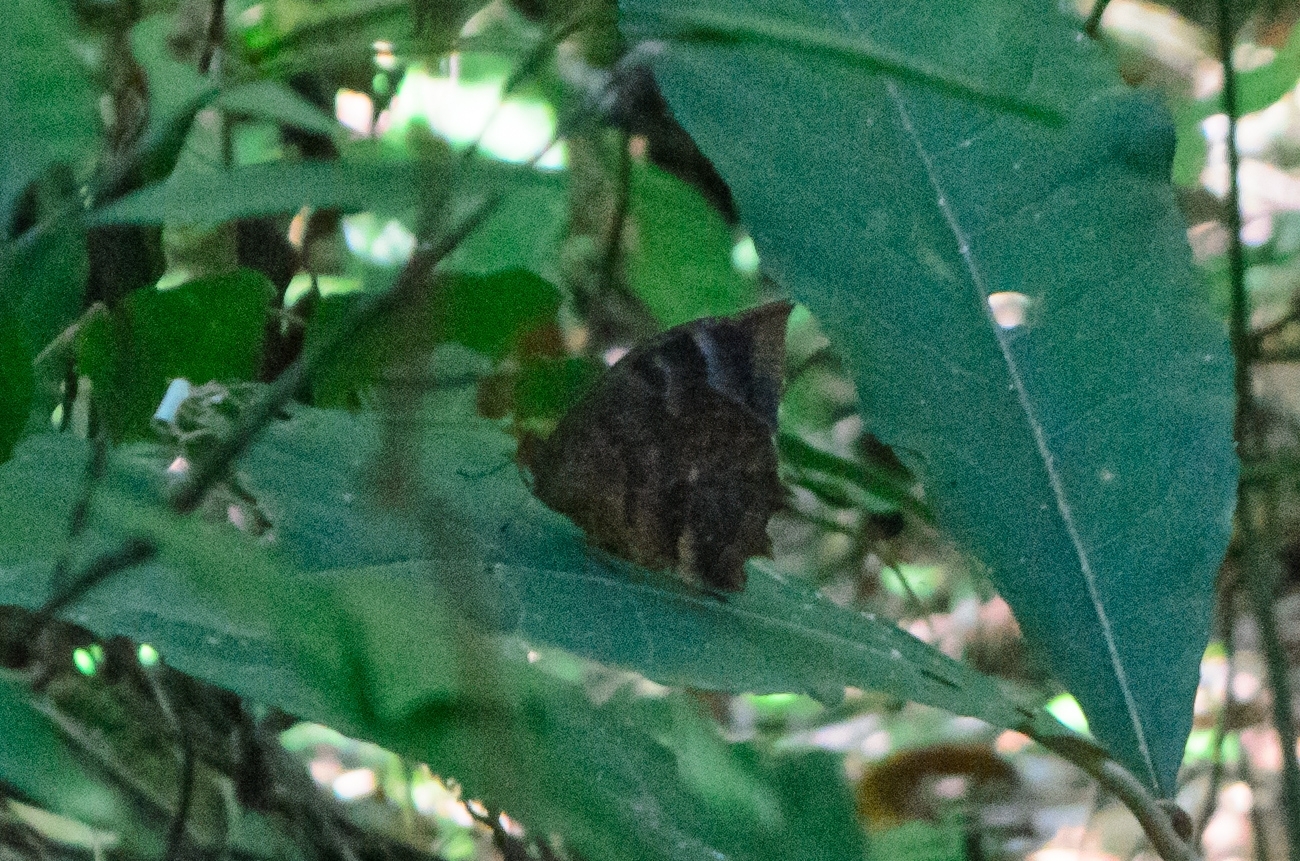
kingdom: Animalia
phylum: Arthropoda
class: Insecta
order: Lepidoptera
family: Nymphalidae
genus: Taguaiba
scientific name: Taguaiba
